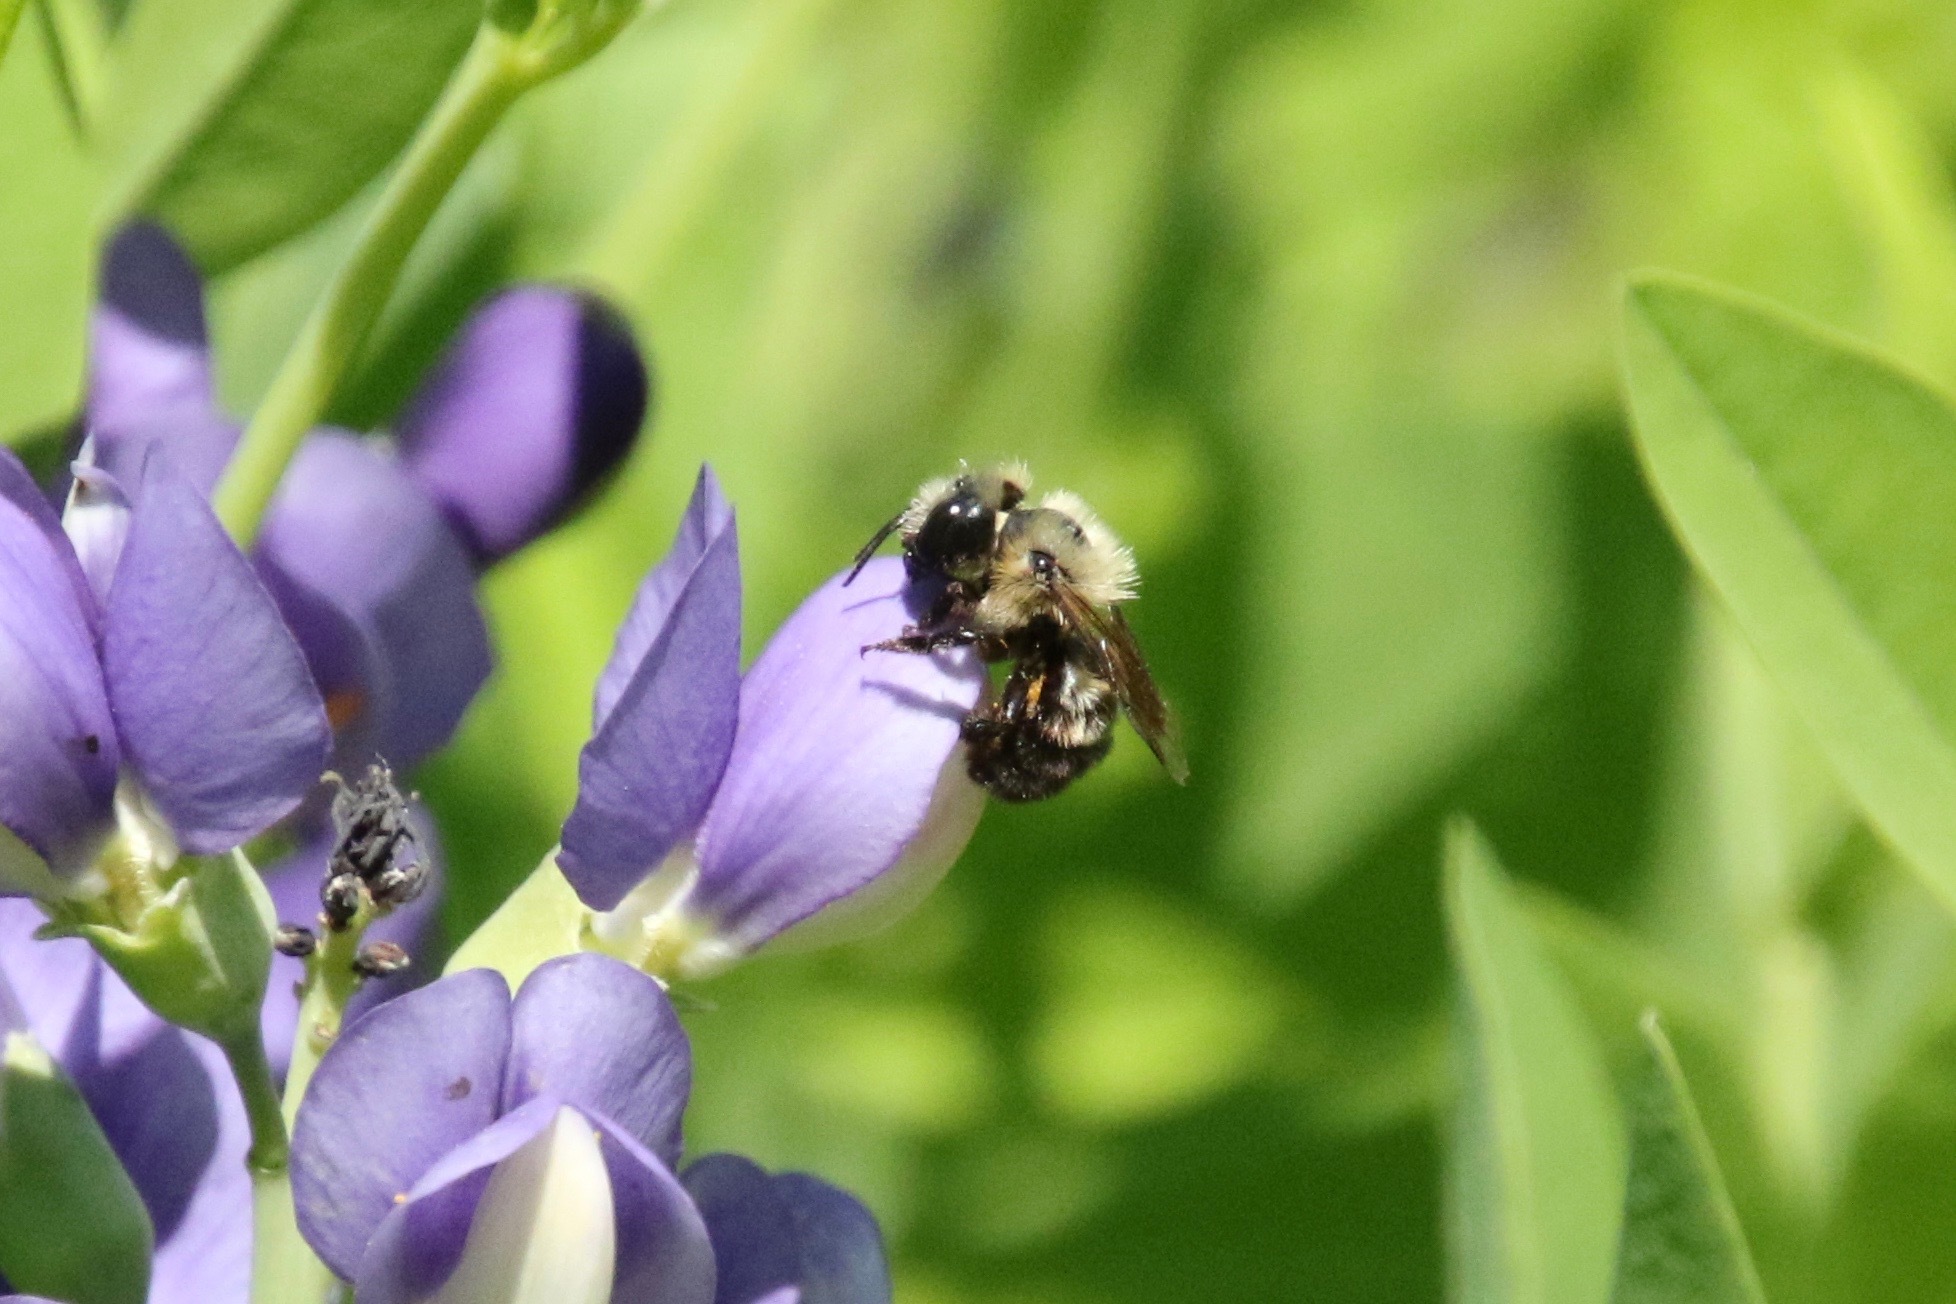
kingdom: Animalia
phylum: Arthropoda
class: Insecta
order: Hymenoptera
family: Megachilidae
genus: Osmia
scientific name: Osmia bucephala
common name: Bufflehead mason bee
